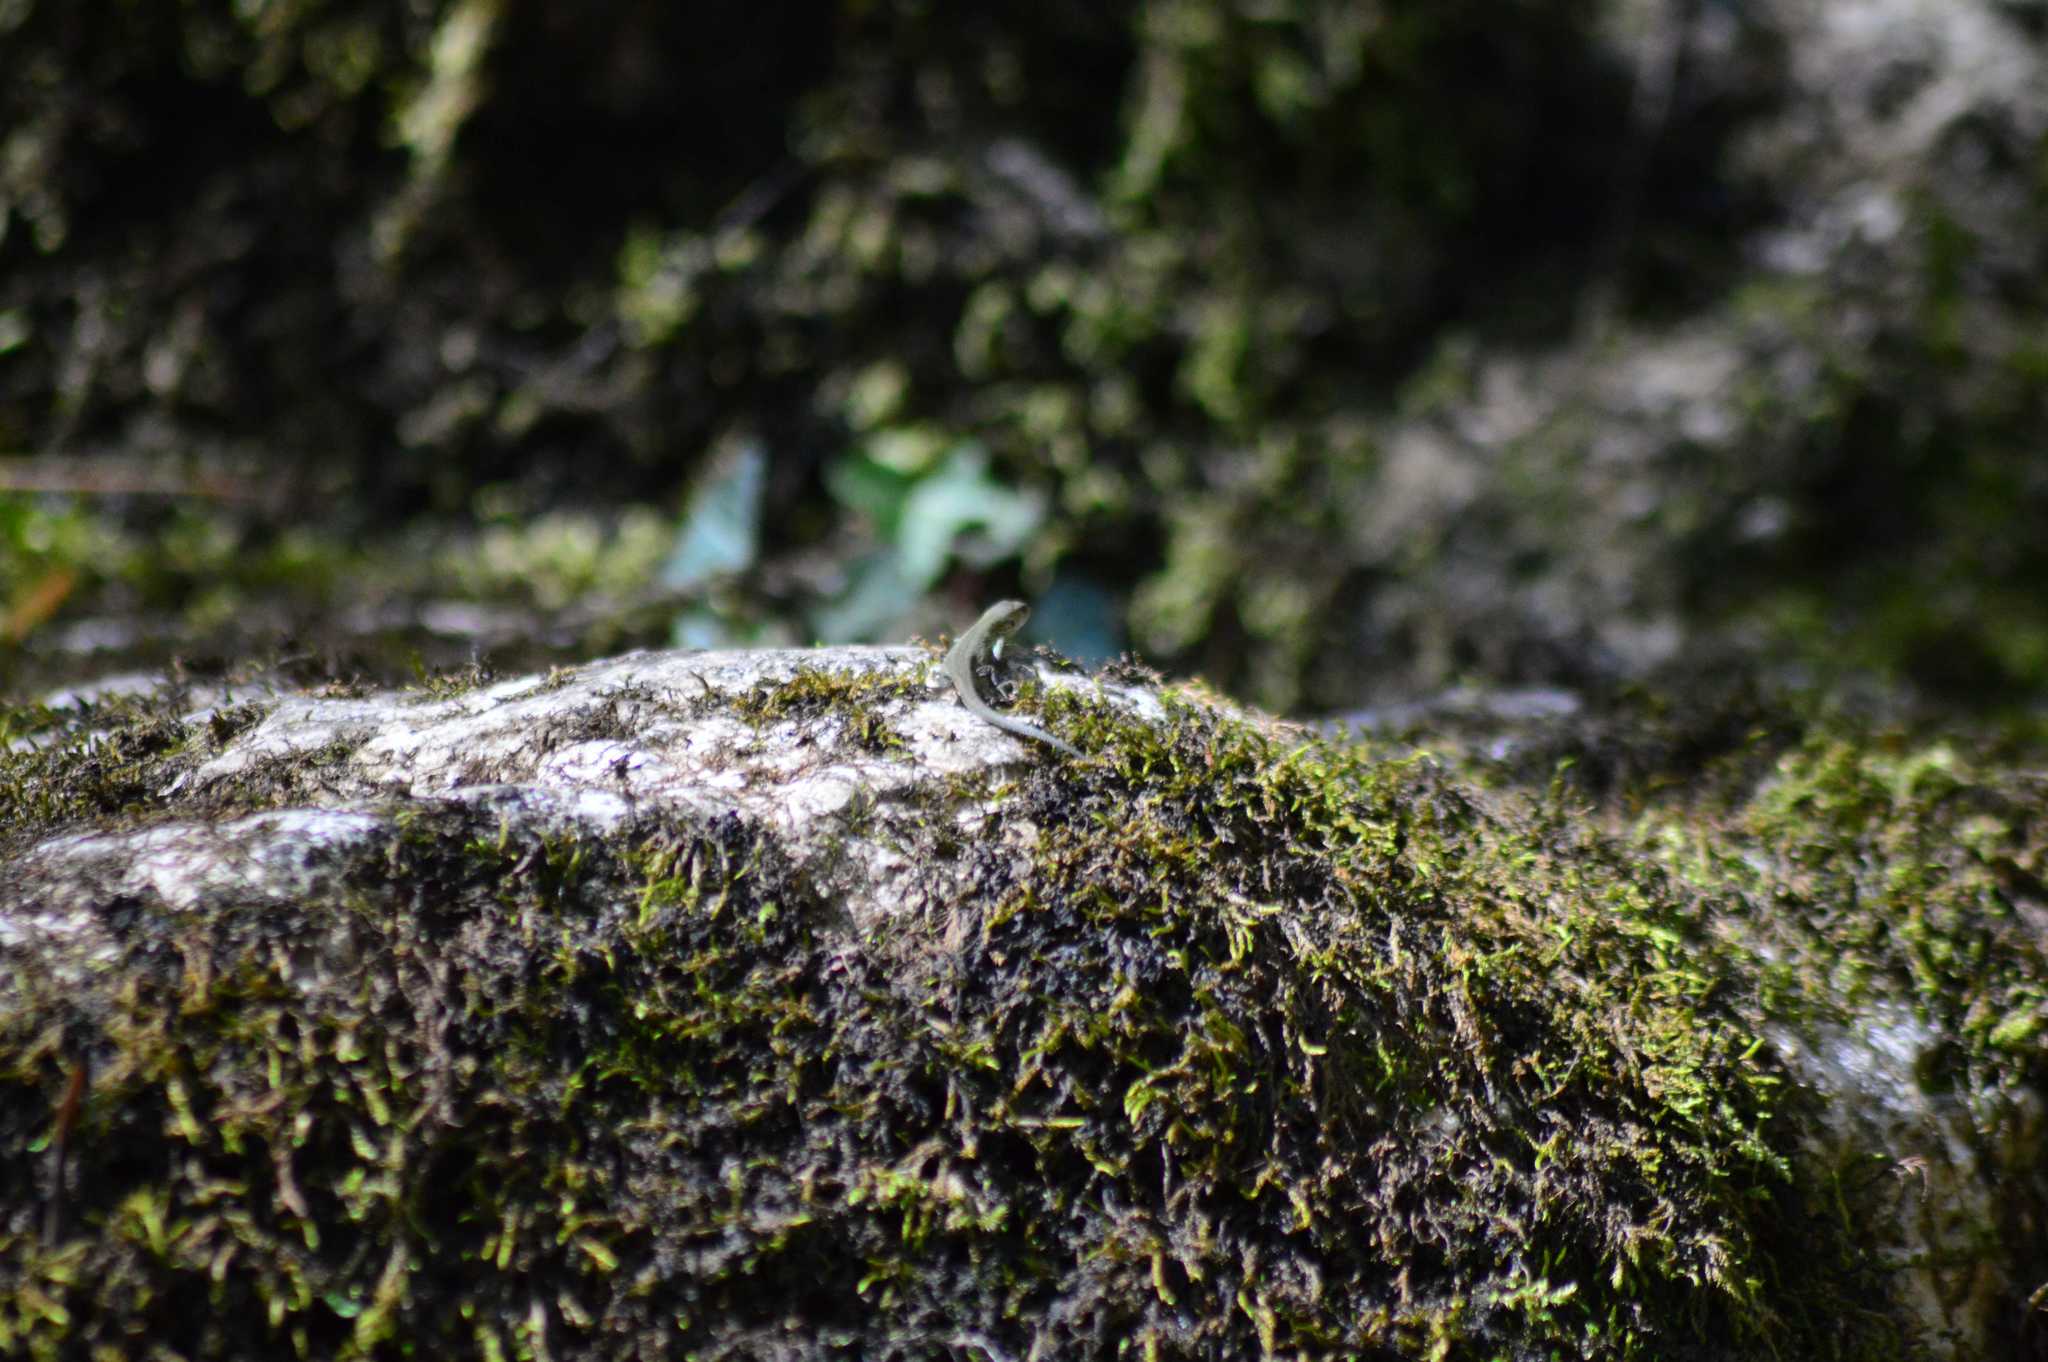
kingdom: Animalia
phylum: Chordata
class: Squamata
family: Lacertidae
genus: Podarcis
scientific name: Podarcis muralis
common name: Common wall lizard
